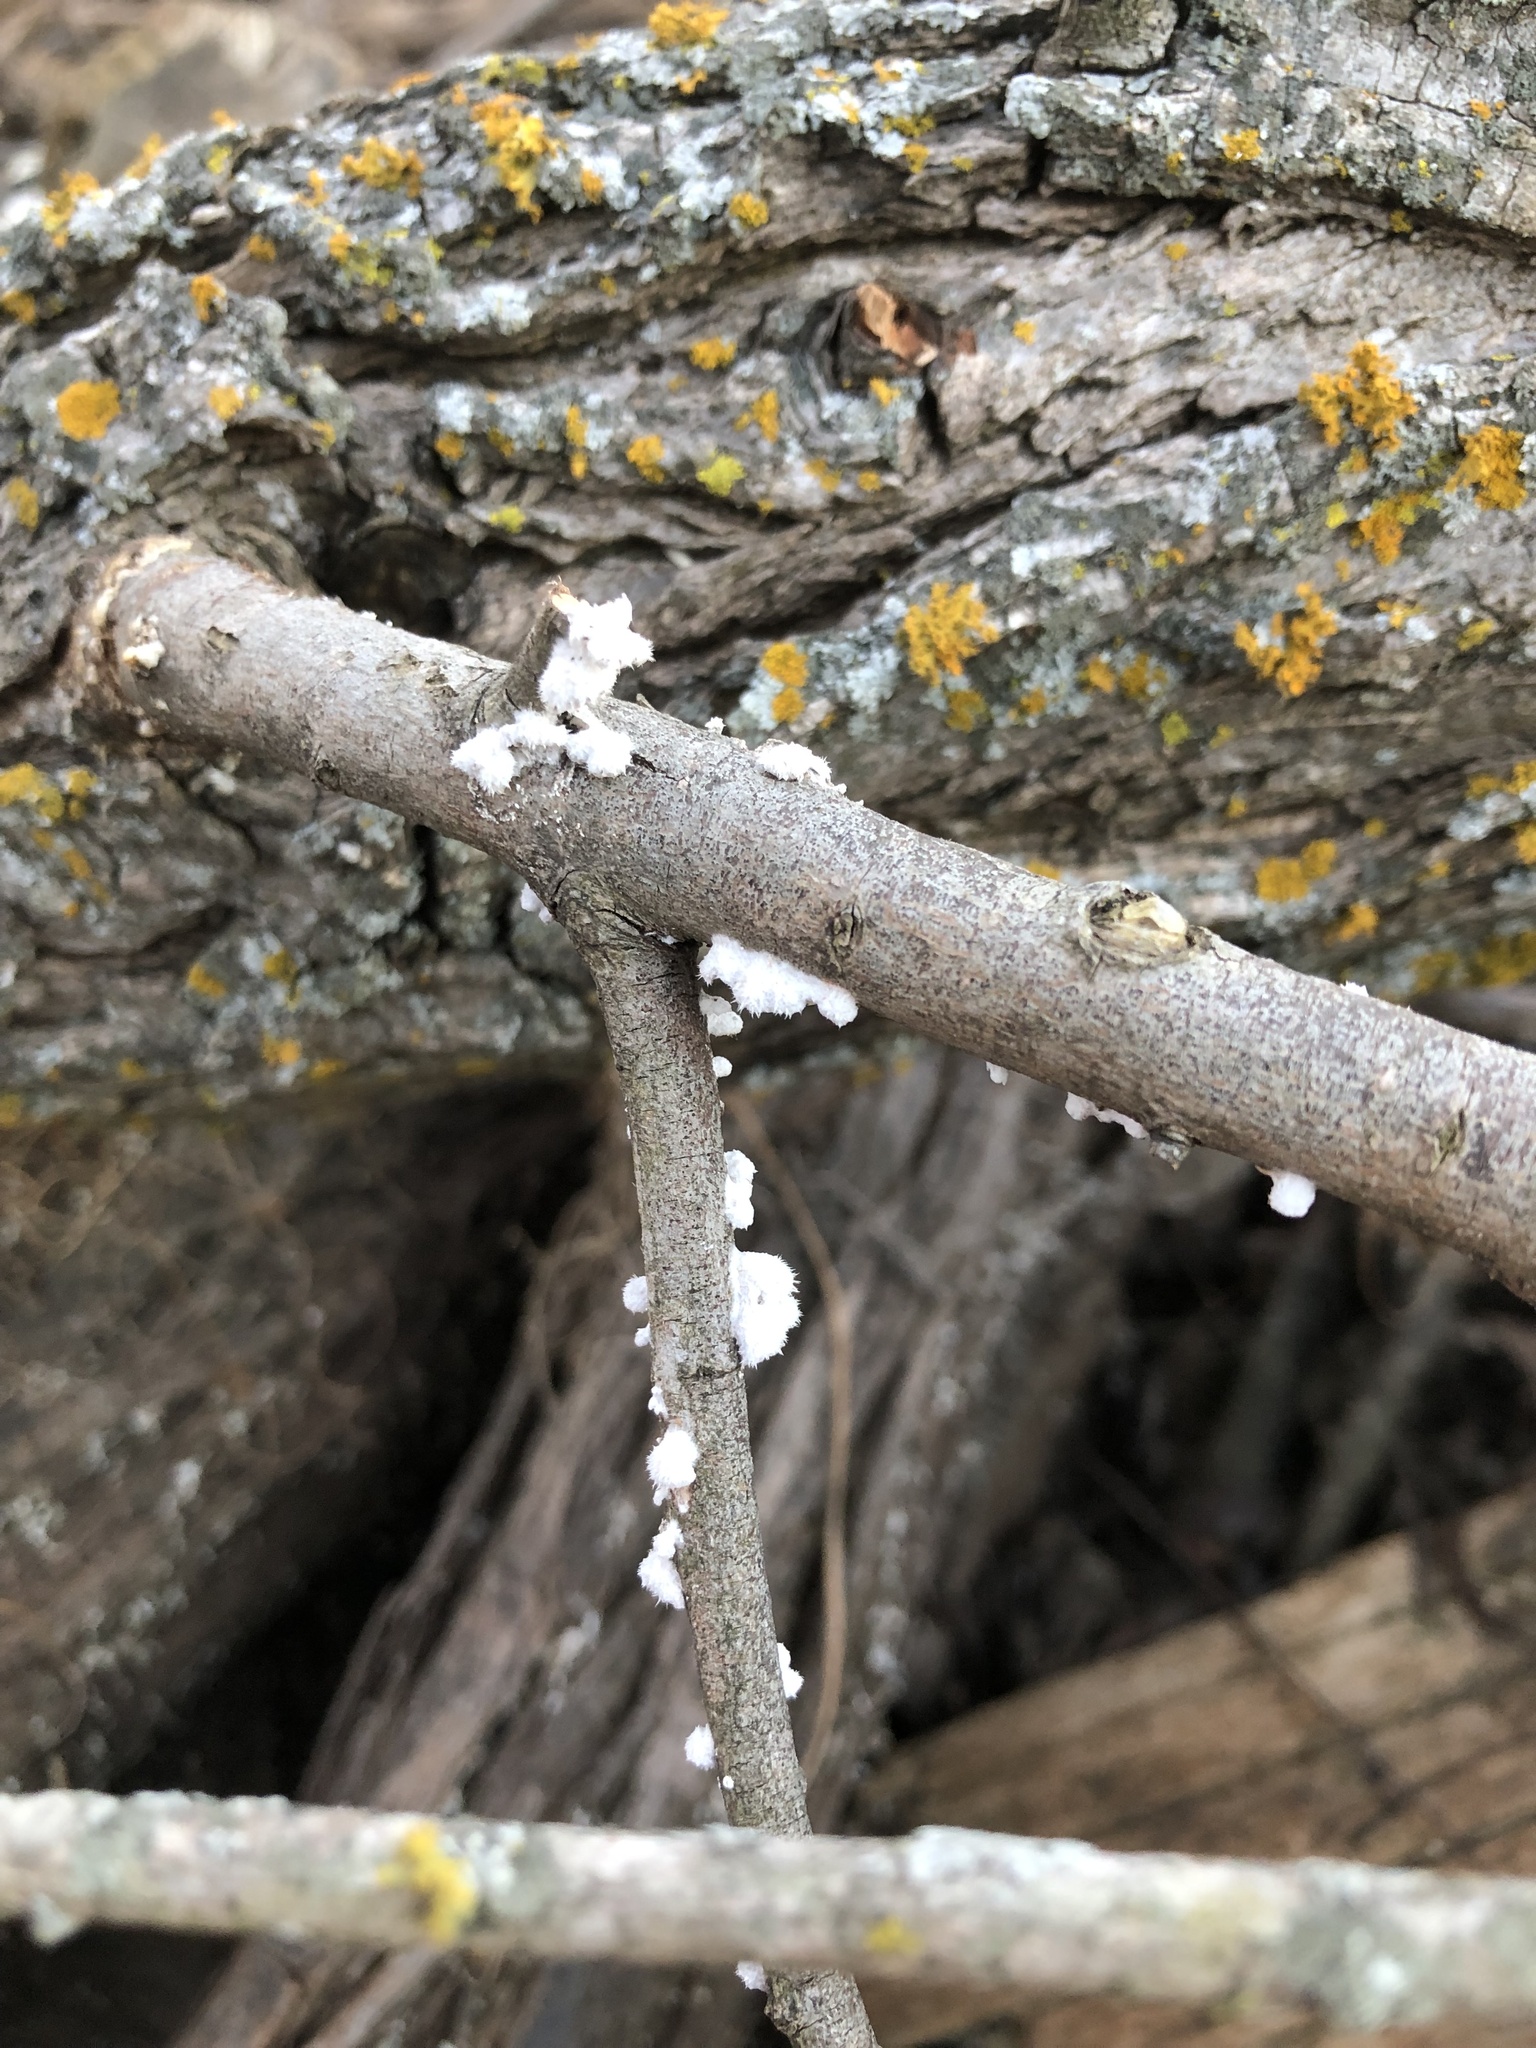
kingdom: Fungi
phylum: Basidiomycota
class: Agaricomycetes
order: Agaricales
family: Schizophyllaceae
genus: Schizophyllum
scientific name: Schizophyllum commune
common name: Common porecrust
